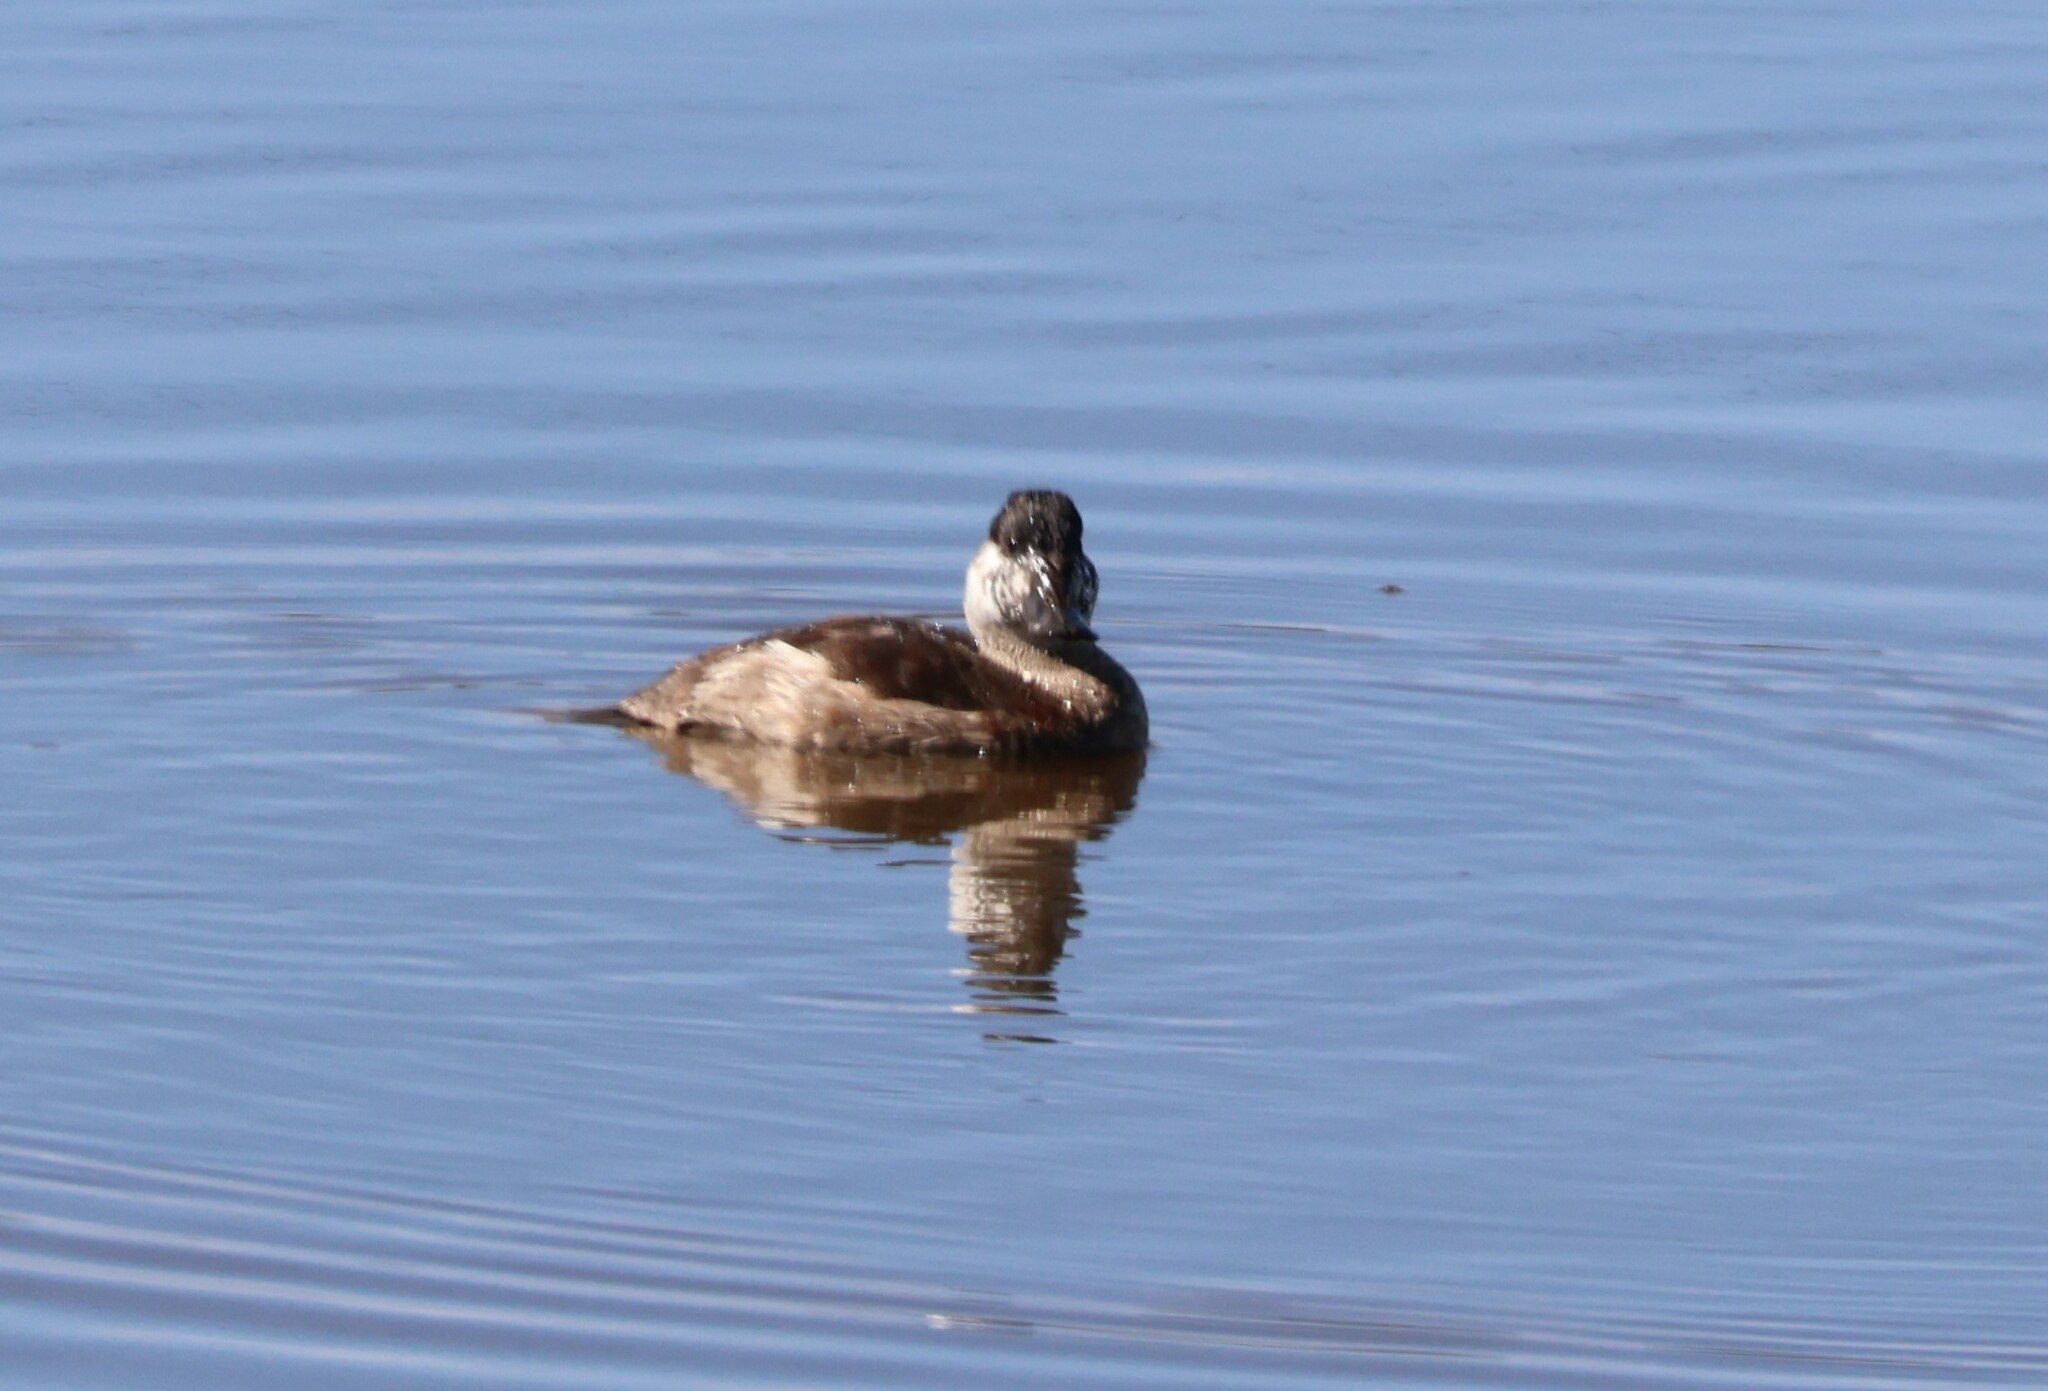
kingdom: Animalia
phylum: Chordata
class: Aves
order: Anseriformes
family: Anatidae
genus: Oxyura
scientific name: Oxyura jamaicensis
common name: Ruddy duck
